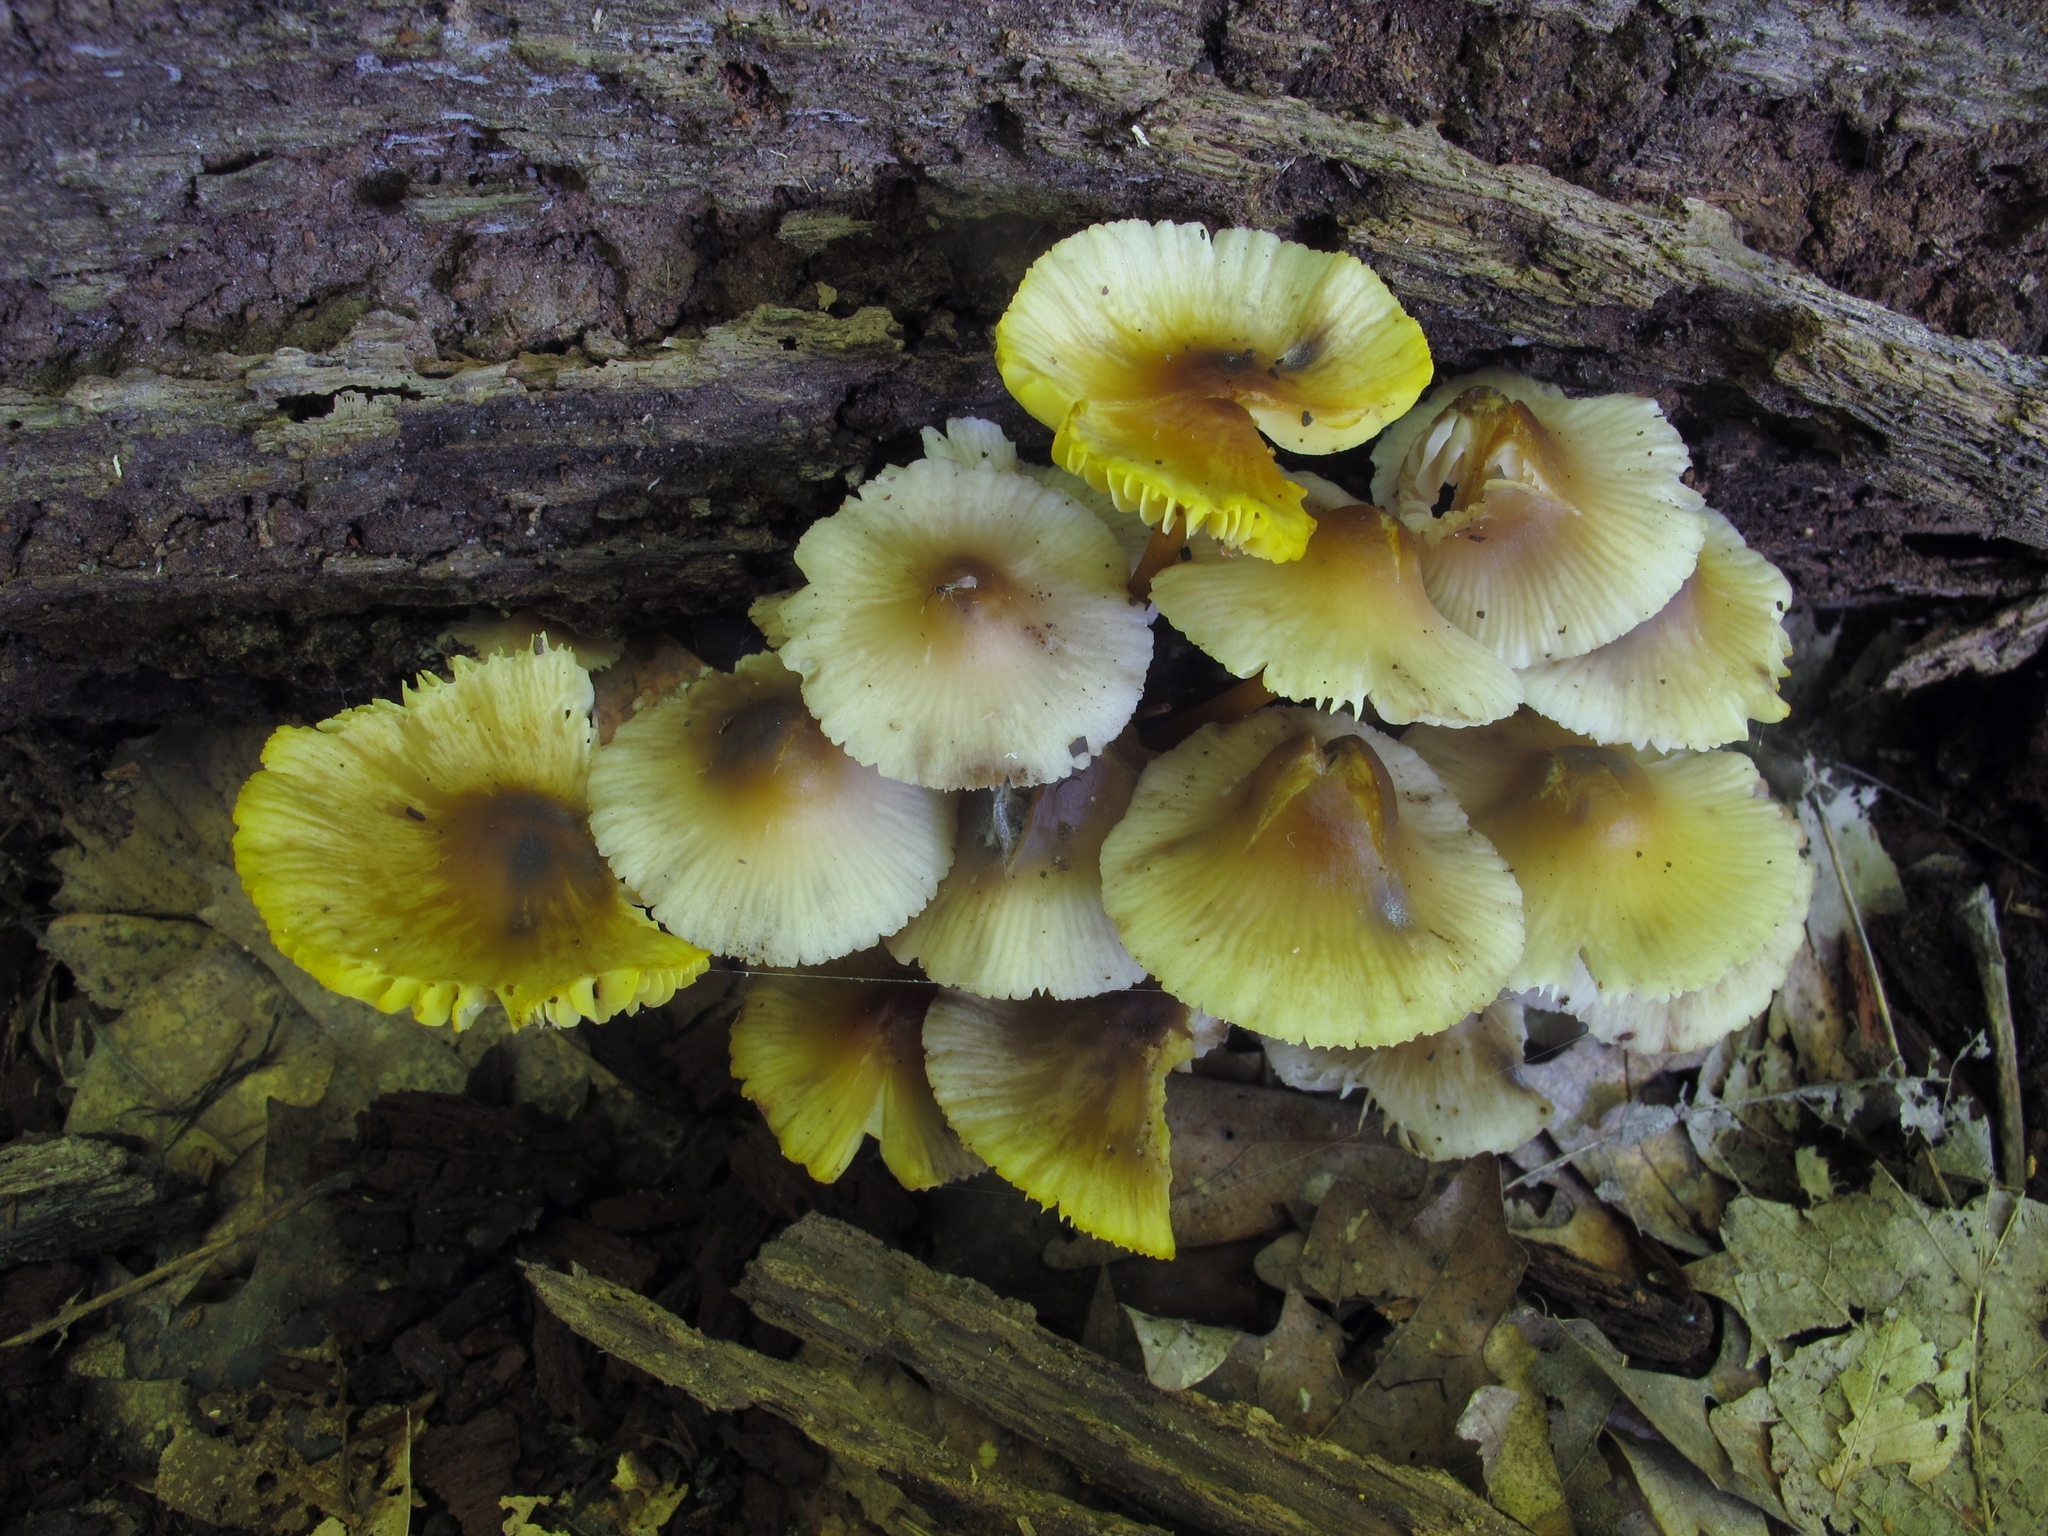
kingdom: Fungi
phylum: Basidiomycota
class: Agaricomycetes
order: Agaricales
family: Mycenaceae
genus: Mycena
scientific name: Mycena inclinata
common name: Clustered bonnet
